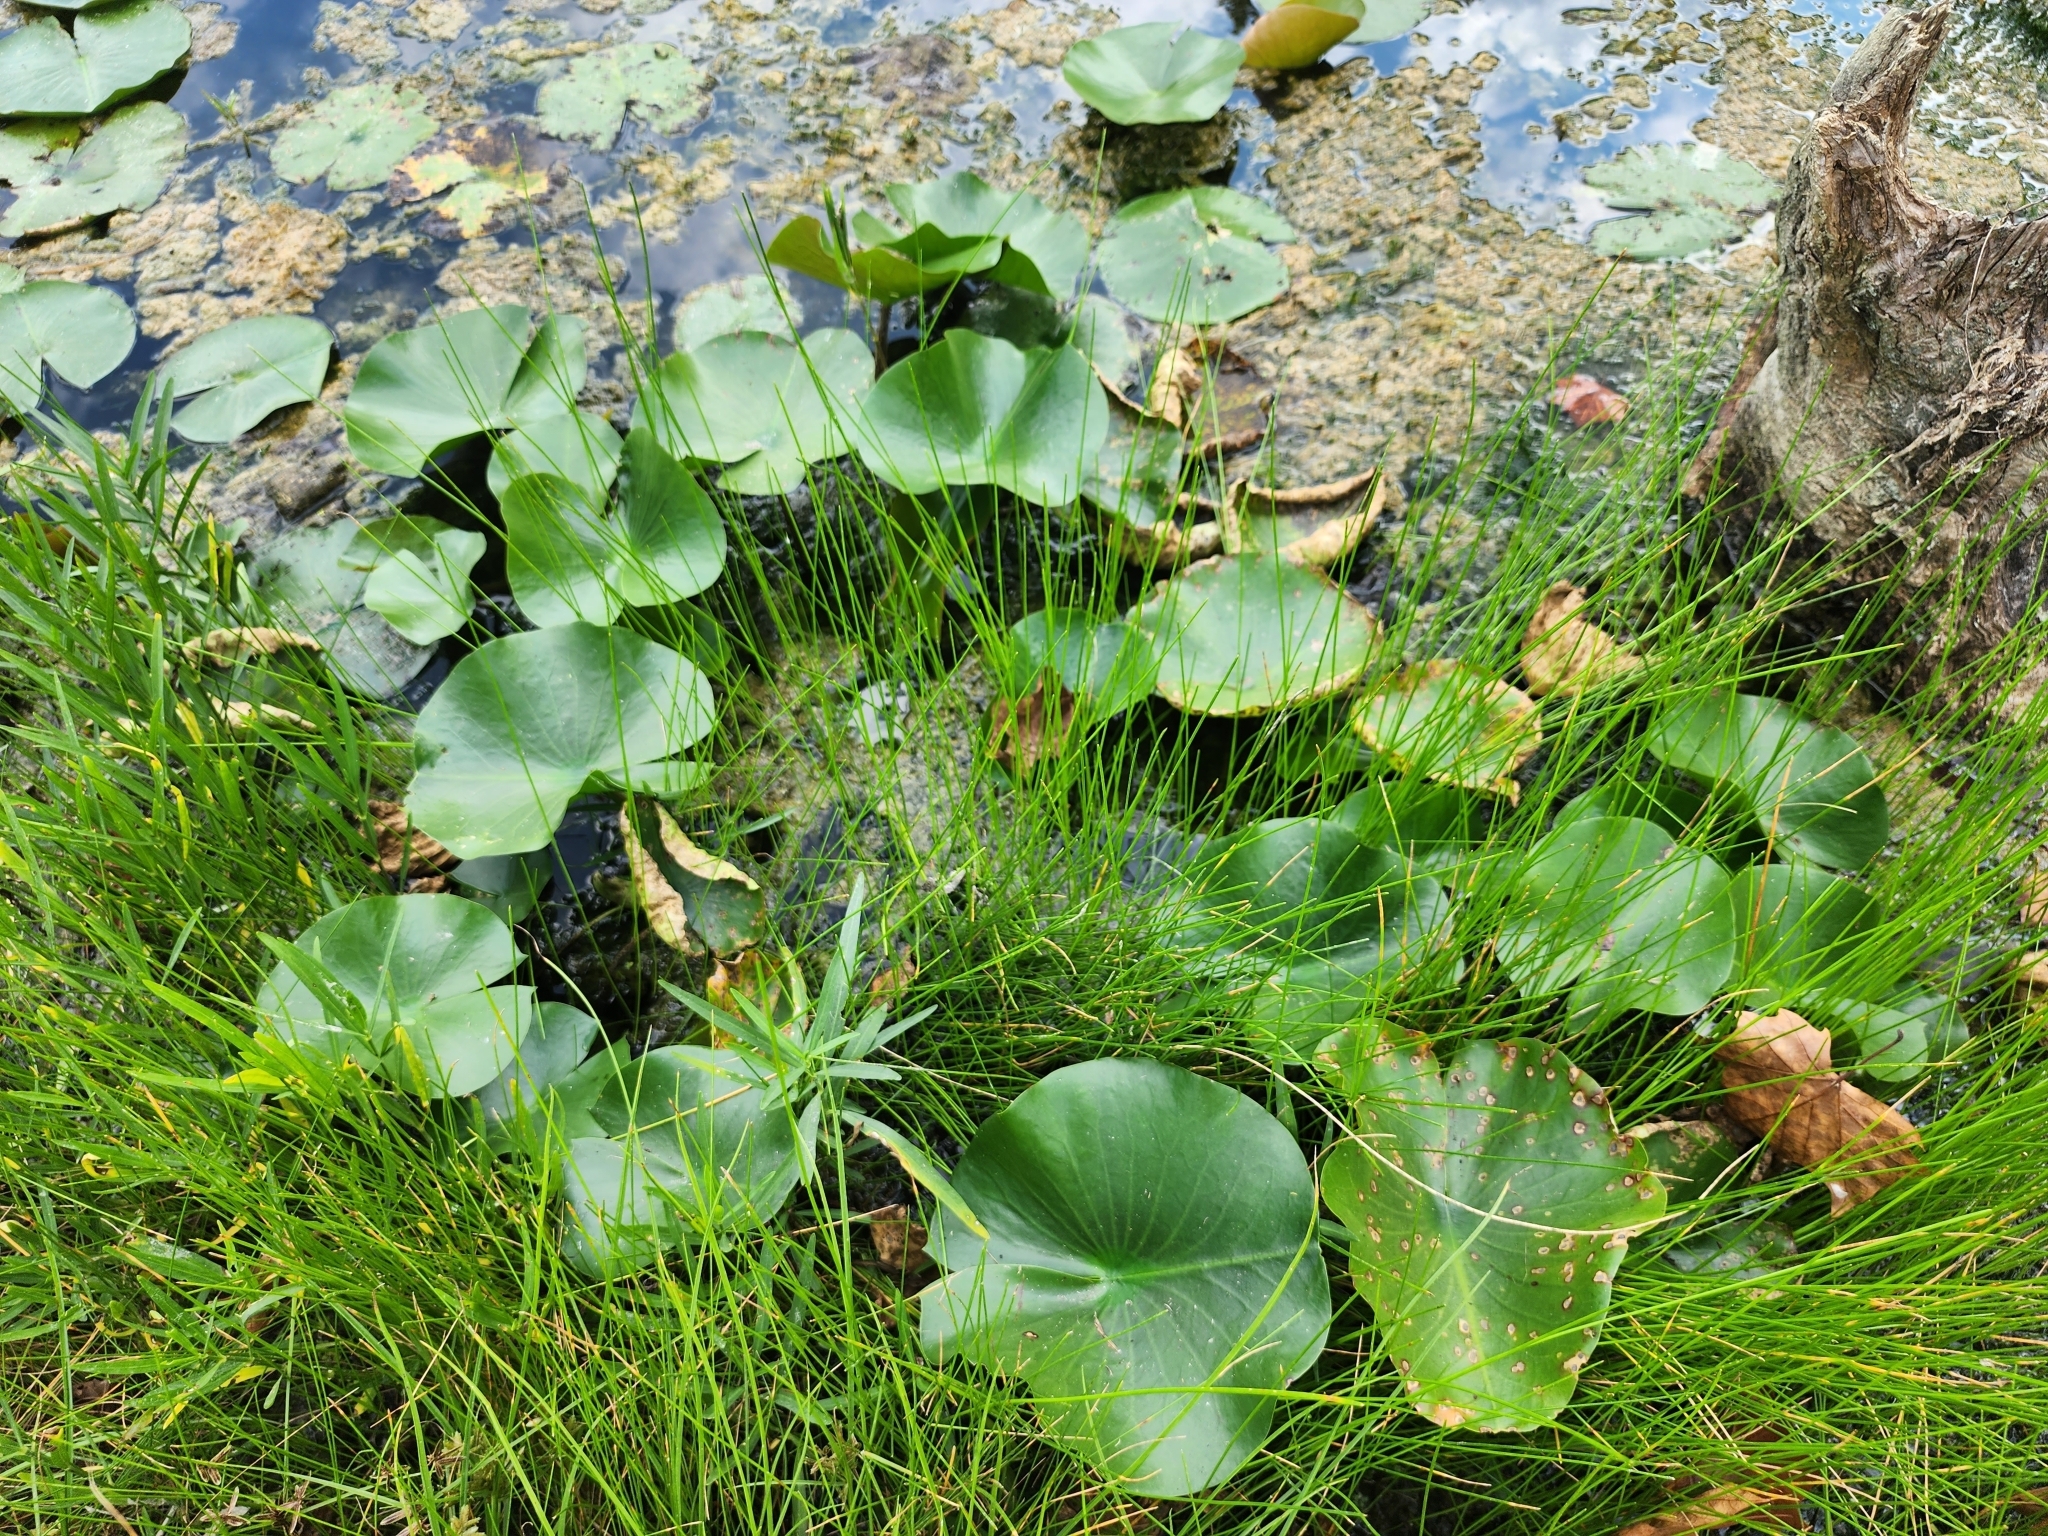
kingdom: Plantae
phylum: Tracheophyta
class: Magnoliopsida
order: Proteales
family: Nelumbonaceae
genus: Nelumbo
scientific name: Nelumbo lutea
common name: American lotus
